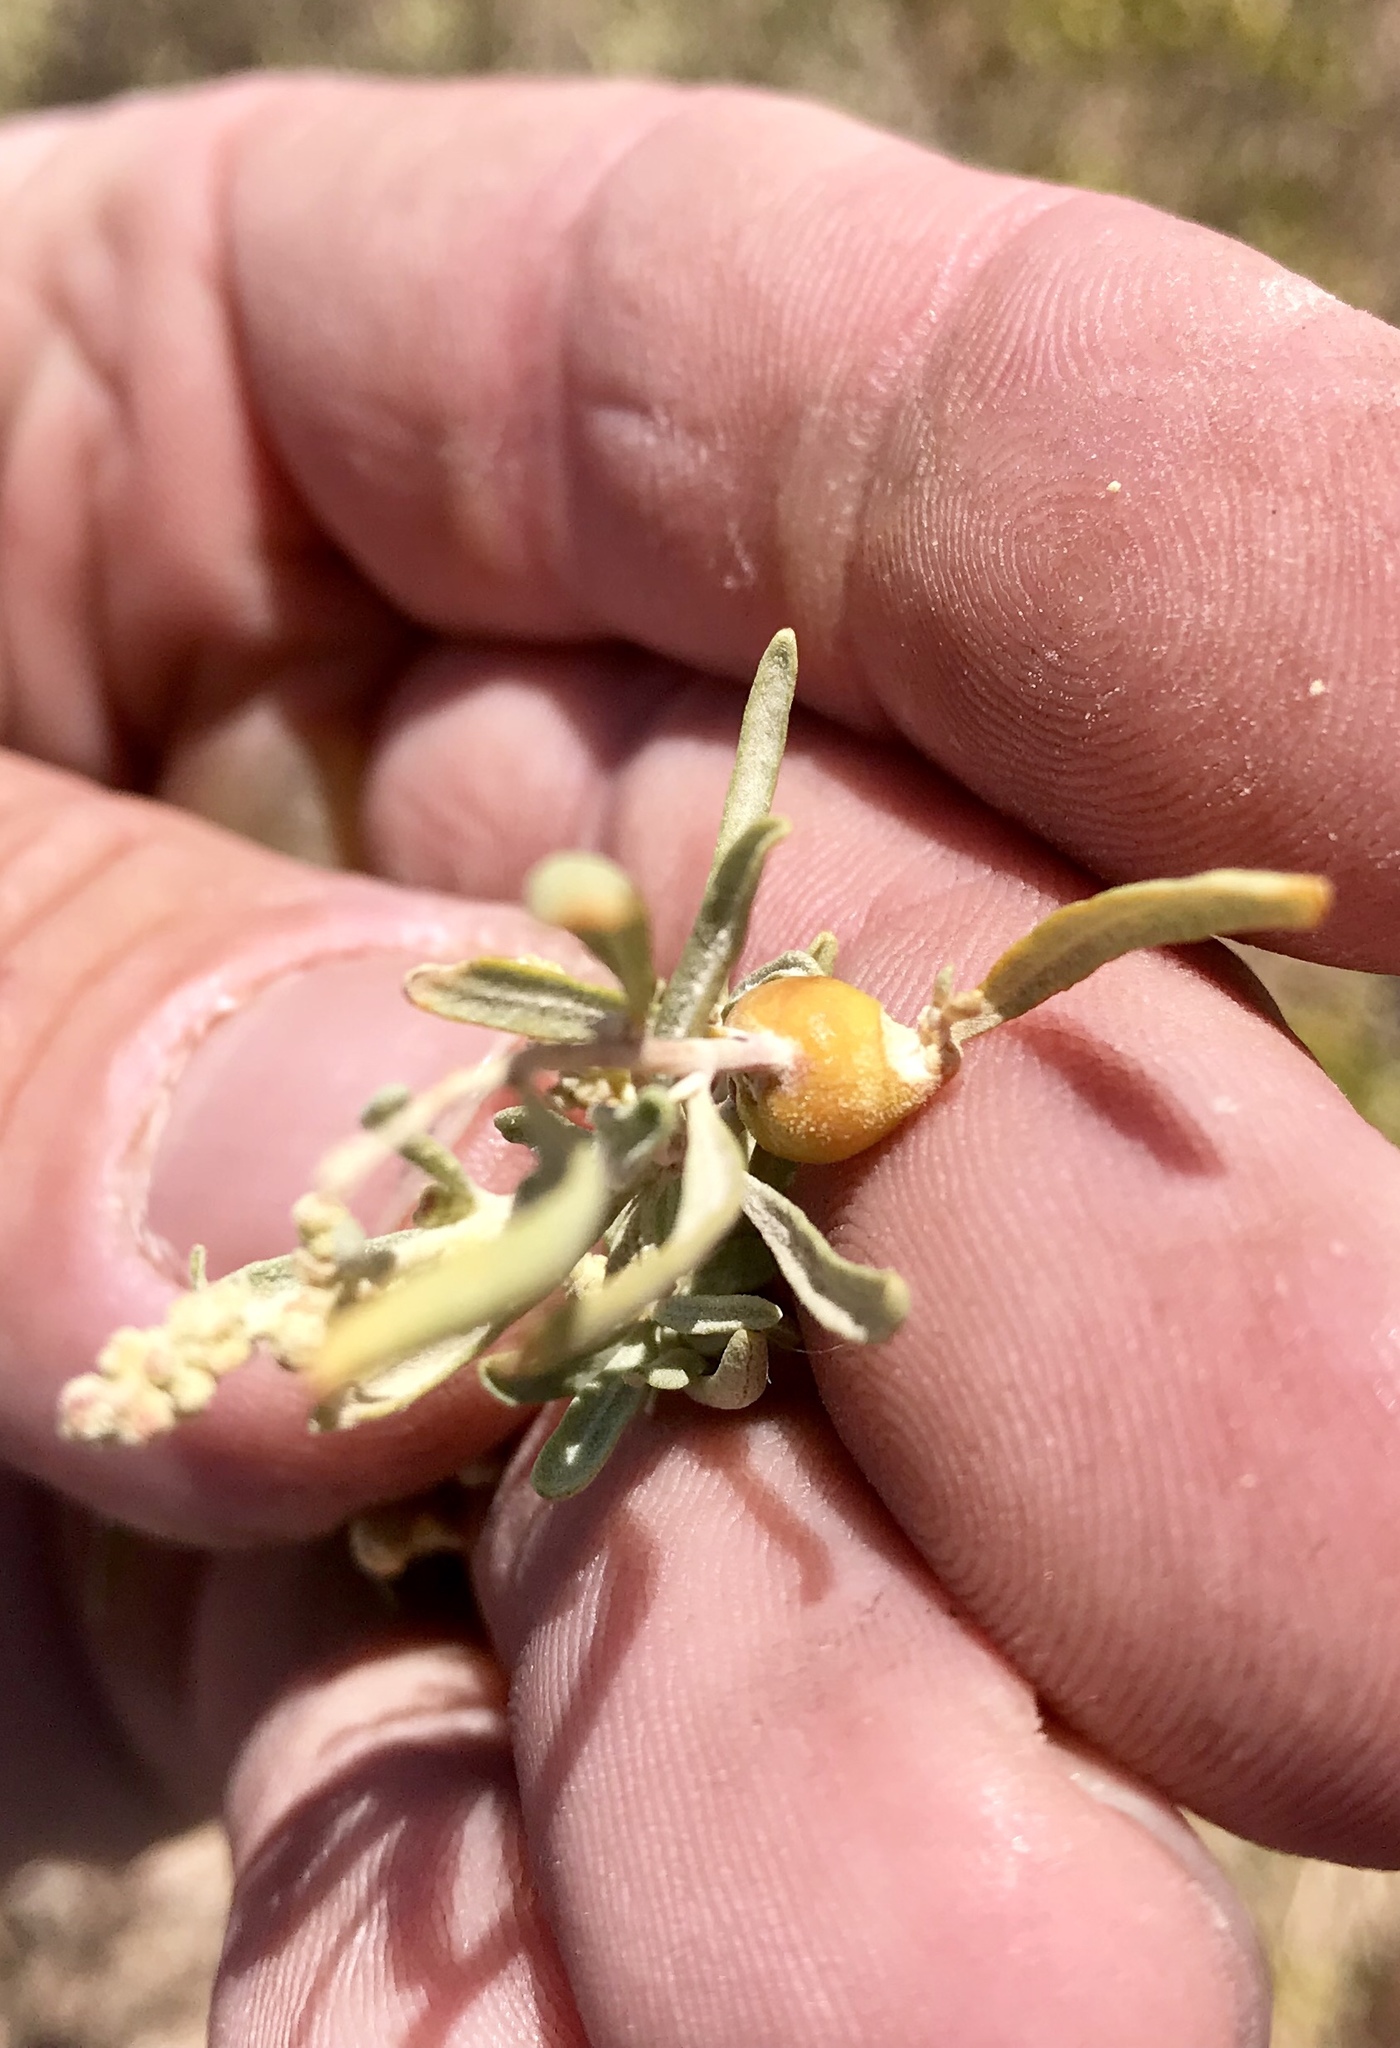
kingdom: Animalia
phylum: Arthropoda
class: Insecta
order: Diptera
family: Cecidomyiidae
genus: Asphondylia
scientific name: Asphondylia atriplicis
